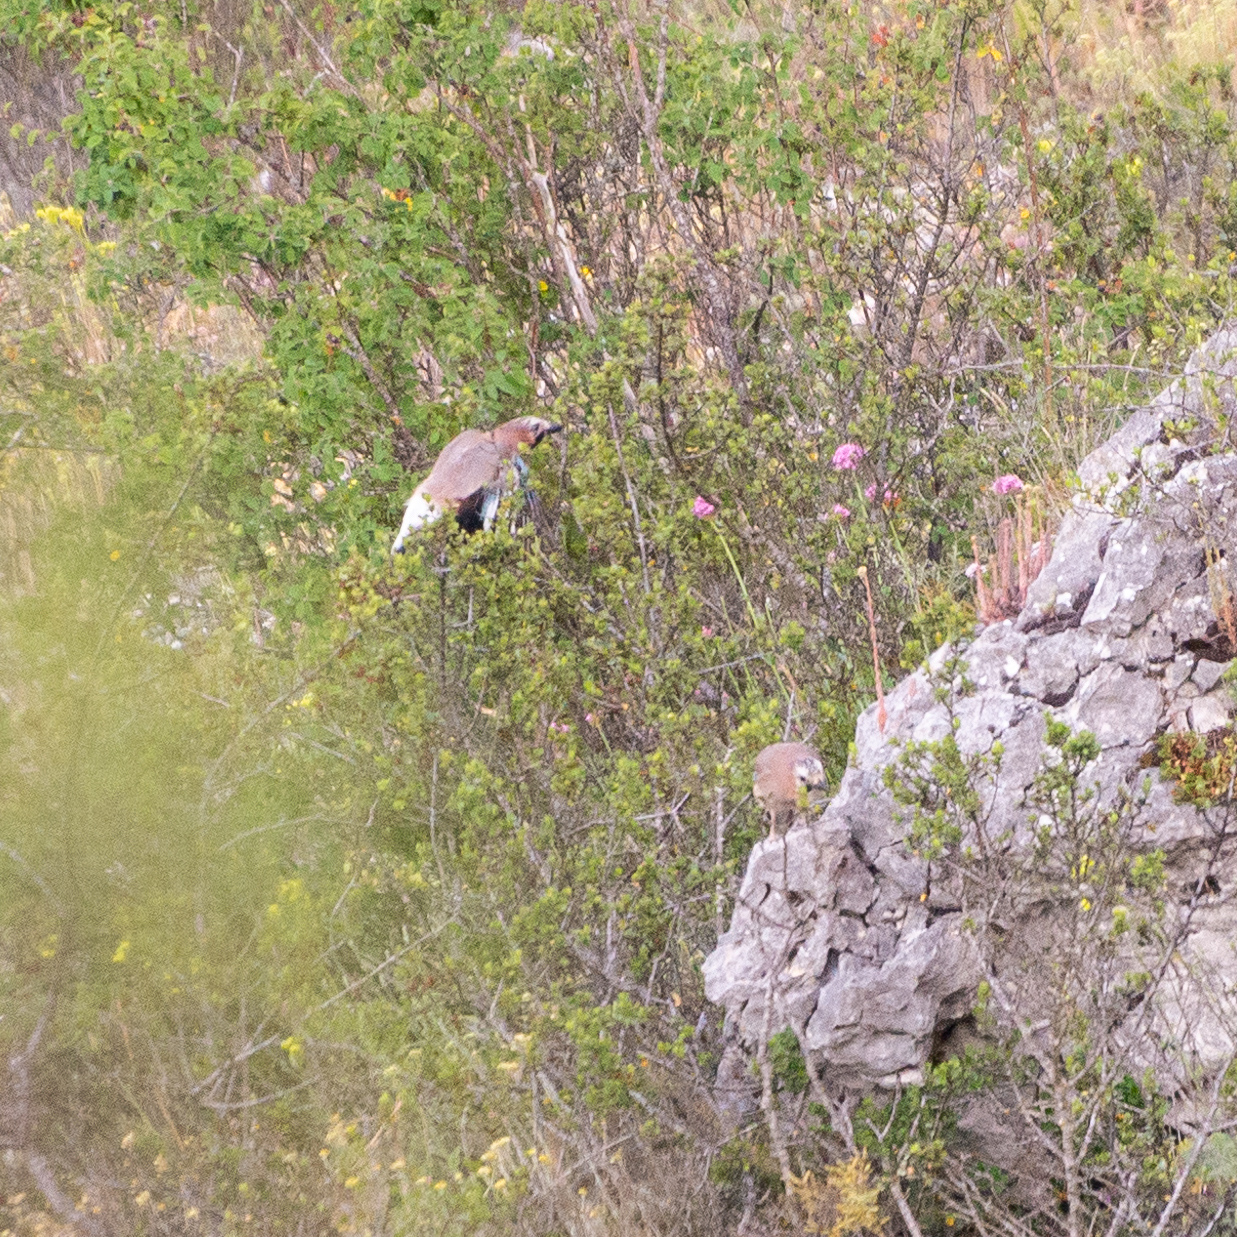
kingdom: Animalia
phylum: Chordata
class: Aves
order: Passeriformes
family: Corvidae
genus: Garrulus
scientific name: Garrulus glandarius
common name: Eurasian jay
